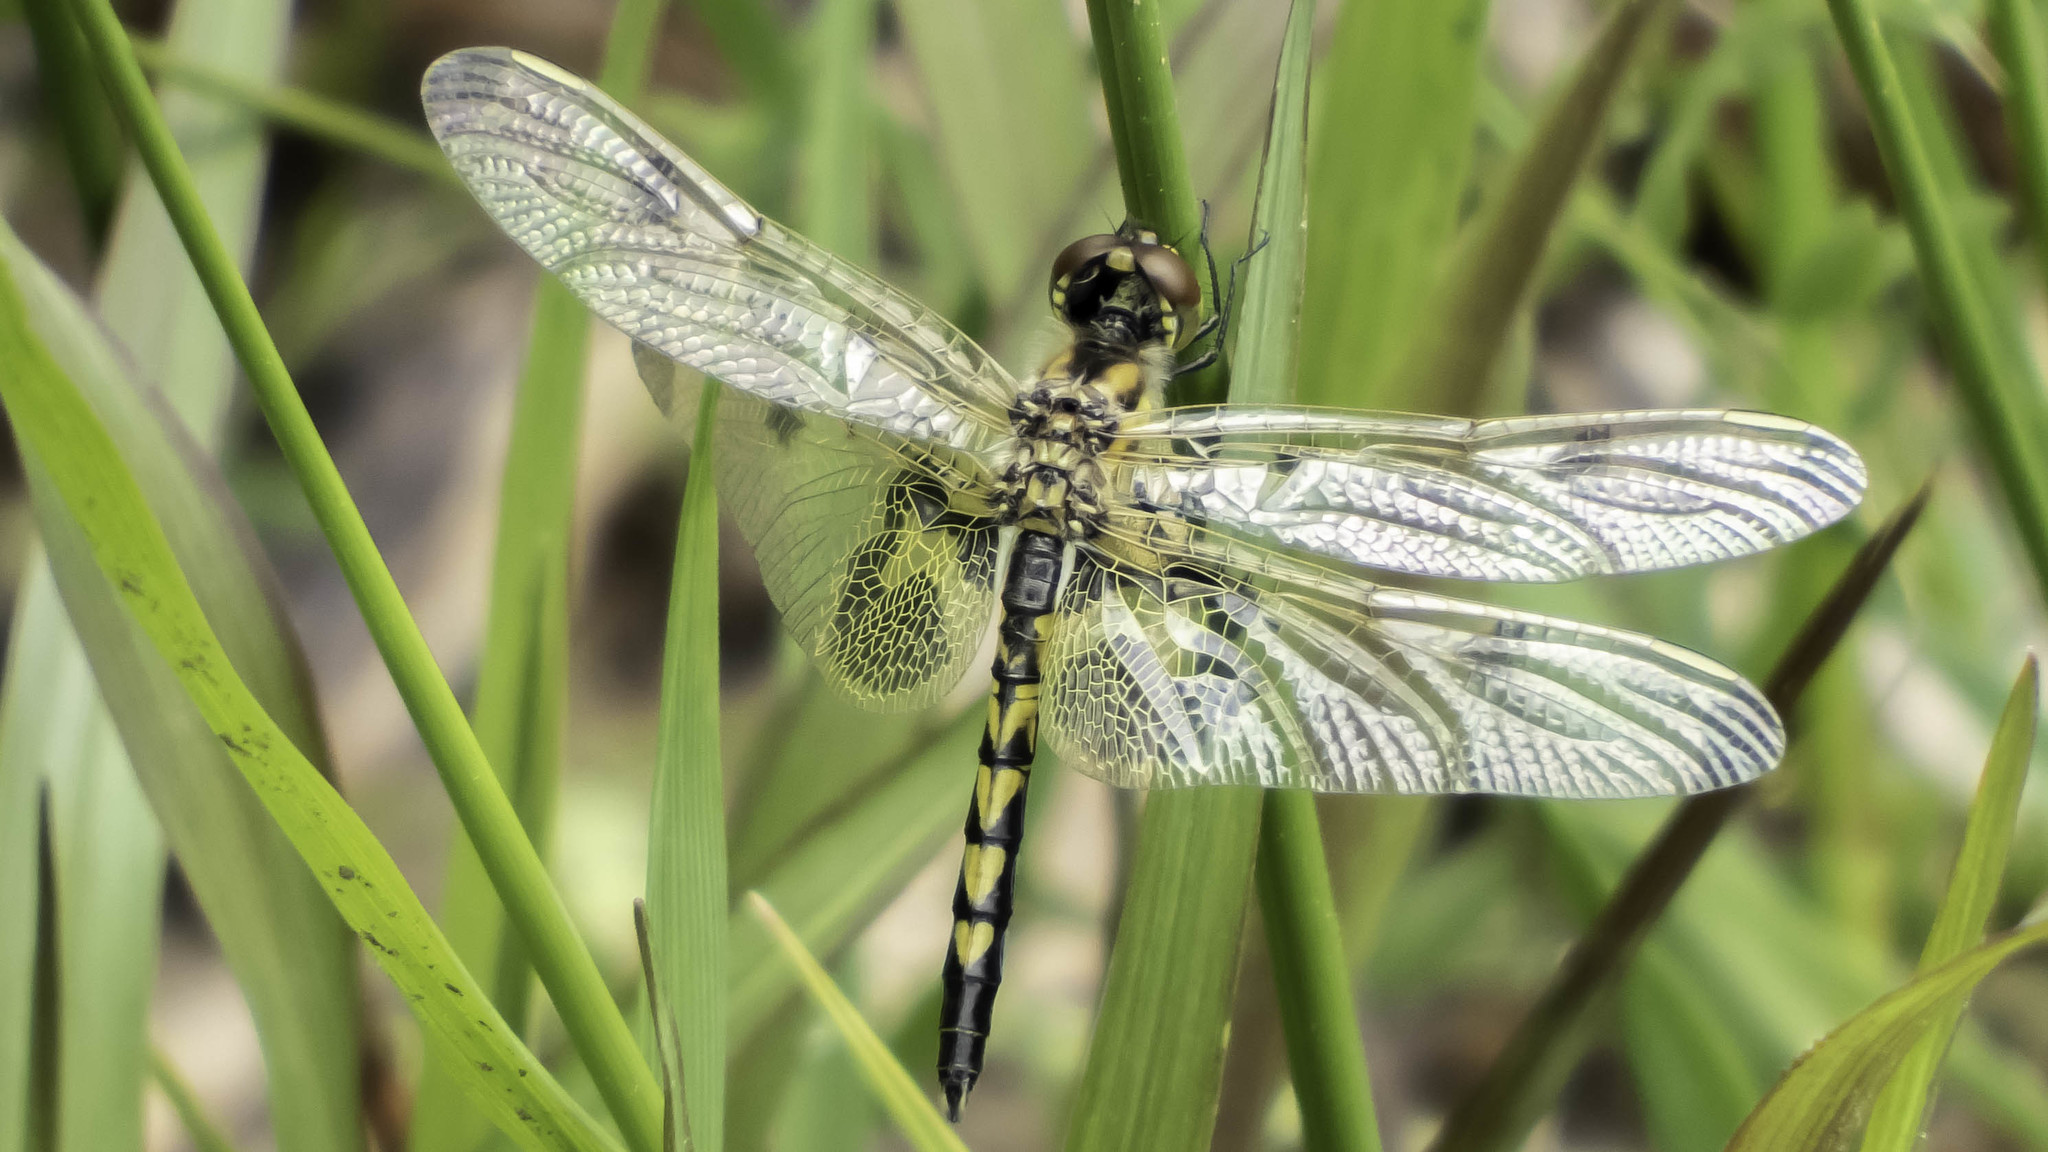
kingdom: Animalia
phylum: Arthropoda
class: Insecta
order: Odonata
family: Libellulidae
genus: Celithemis
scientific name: Celithemis elisa
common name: Calico pennant
